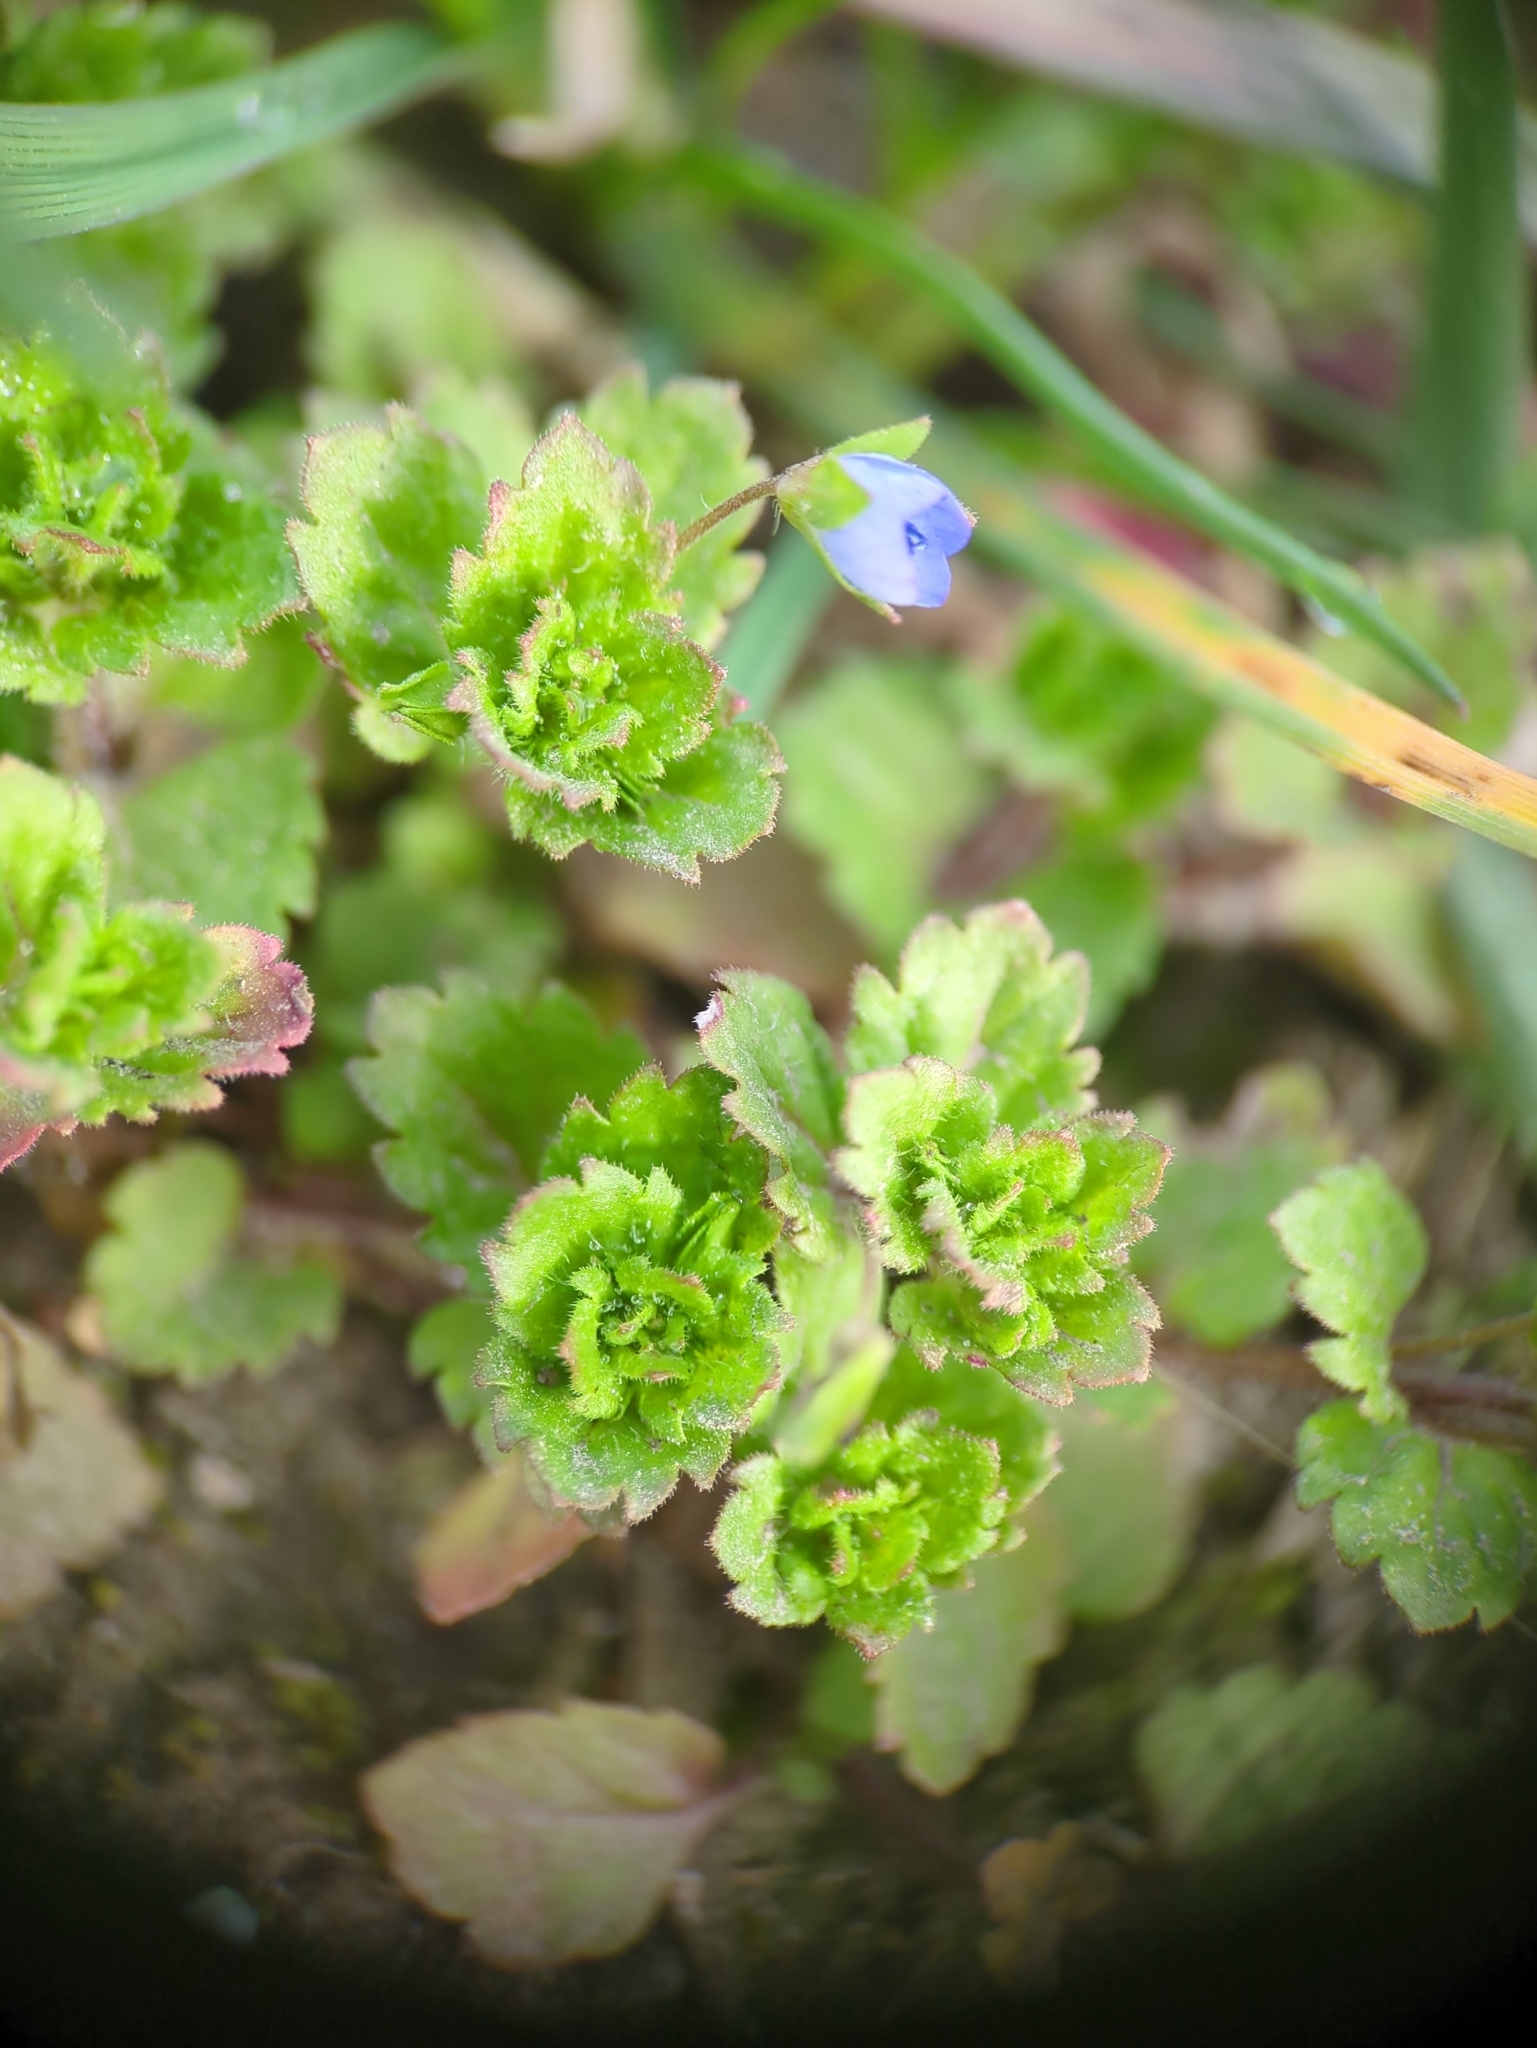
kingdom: Plantae
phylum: Tracheophyta
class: Magnoliopsida
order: Lamiales
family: Plantaginaceae
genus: Veronica
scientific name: Veronica persica
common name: Common field-speedwell
